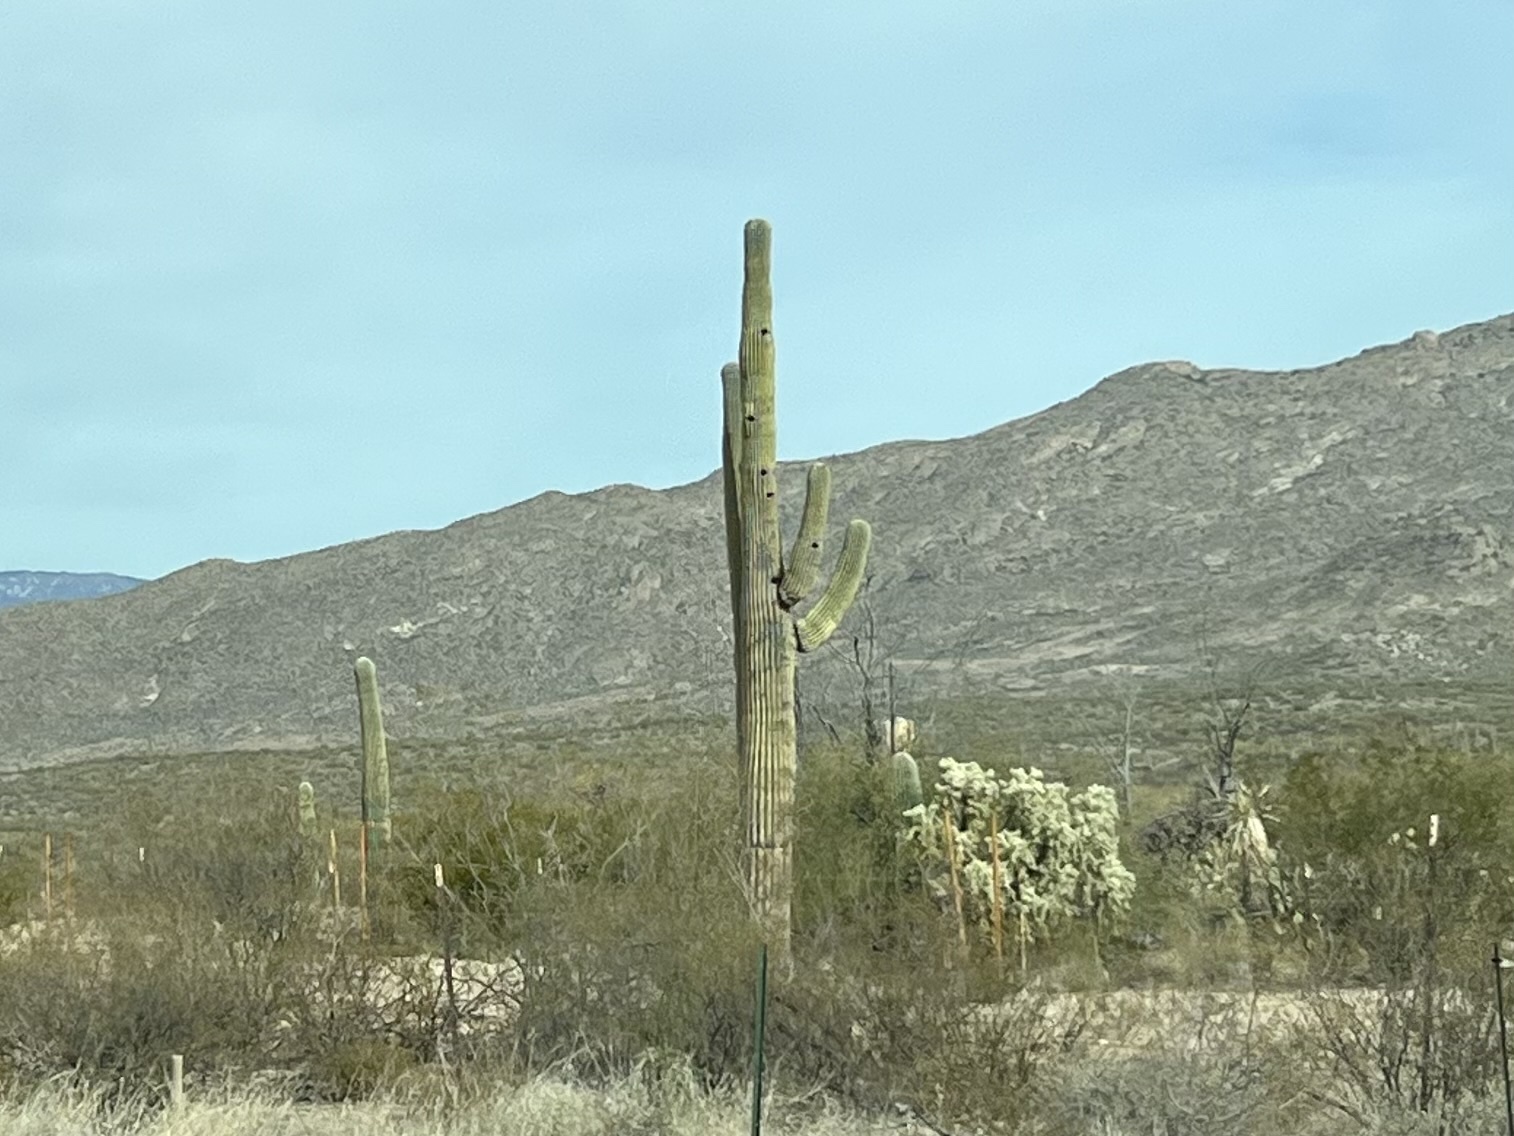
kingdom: Plantae
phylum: Tracheophyta
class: Magnoliopsida
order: Caryophyllales
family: Cactaceae
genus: Carnegiea
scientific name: Carnegiea gigantea
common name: Saguaro
